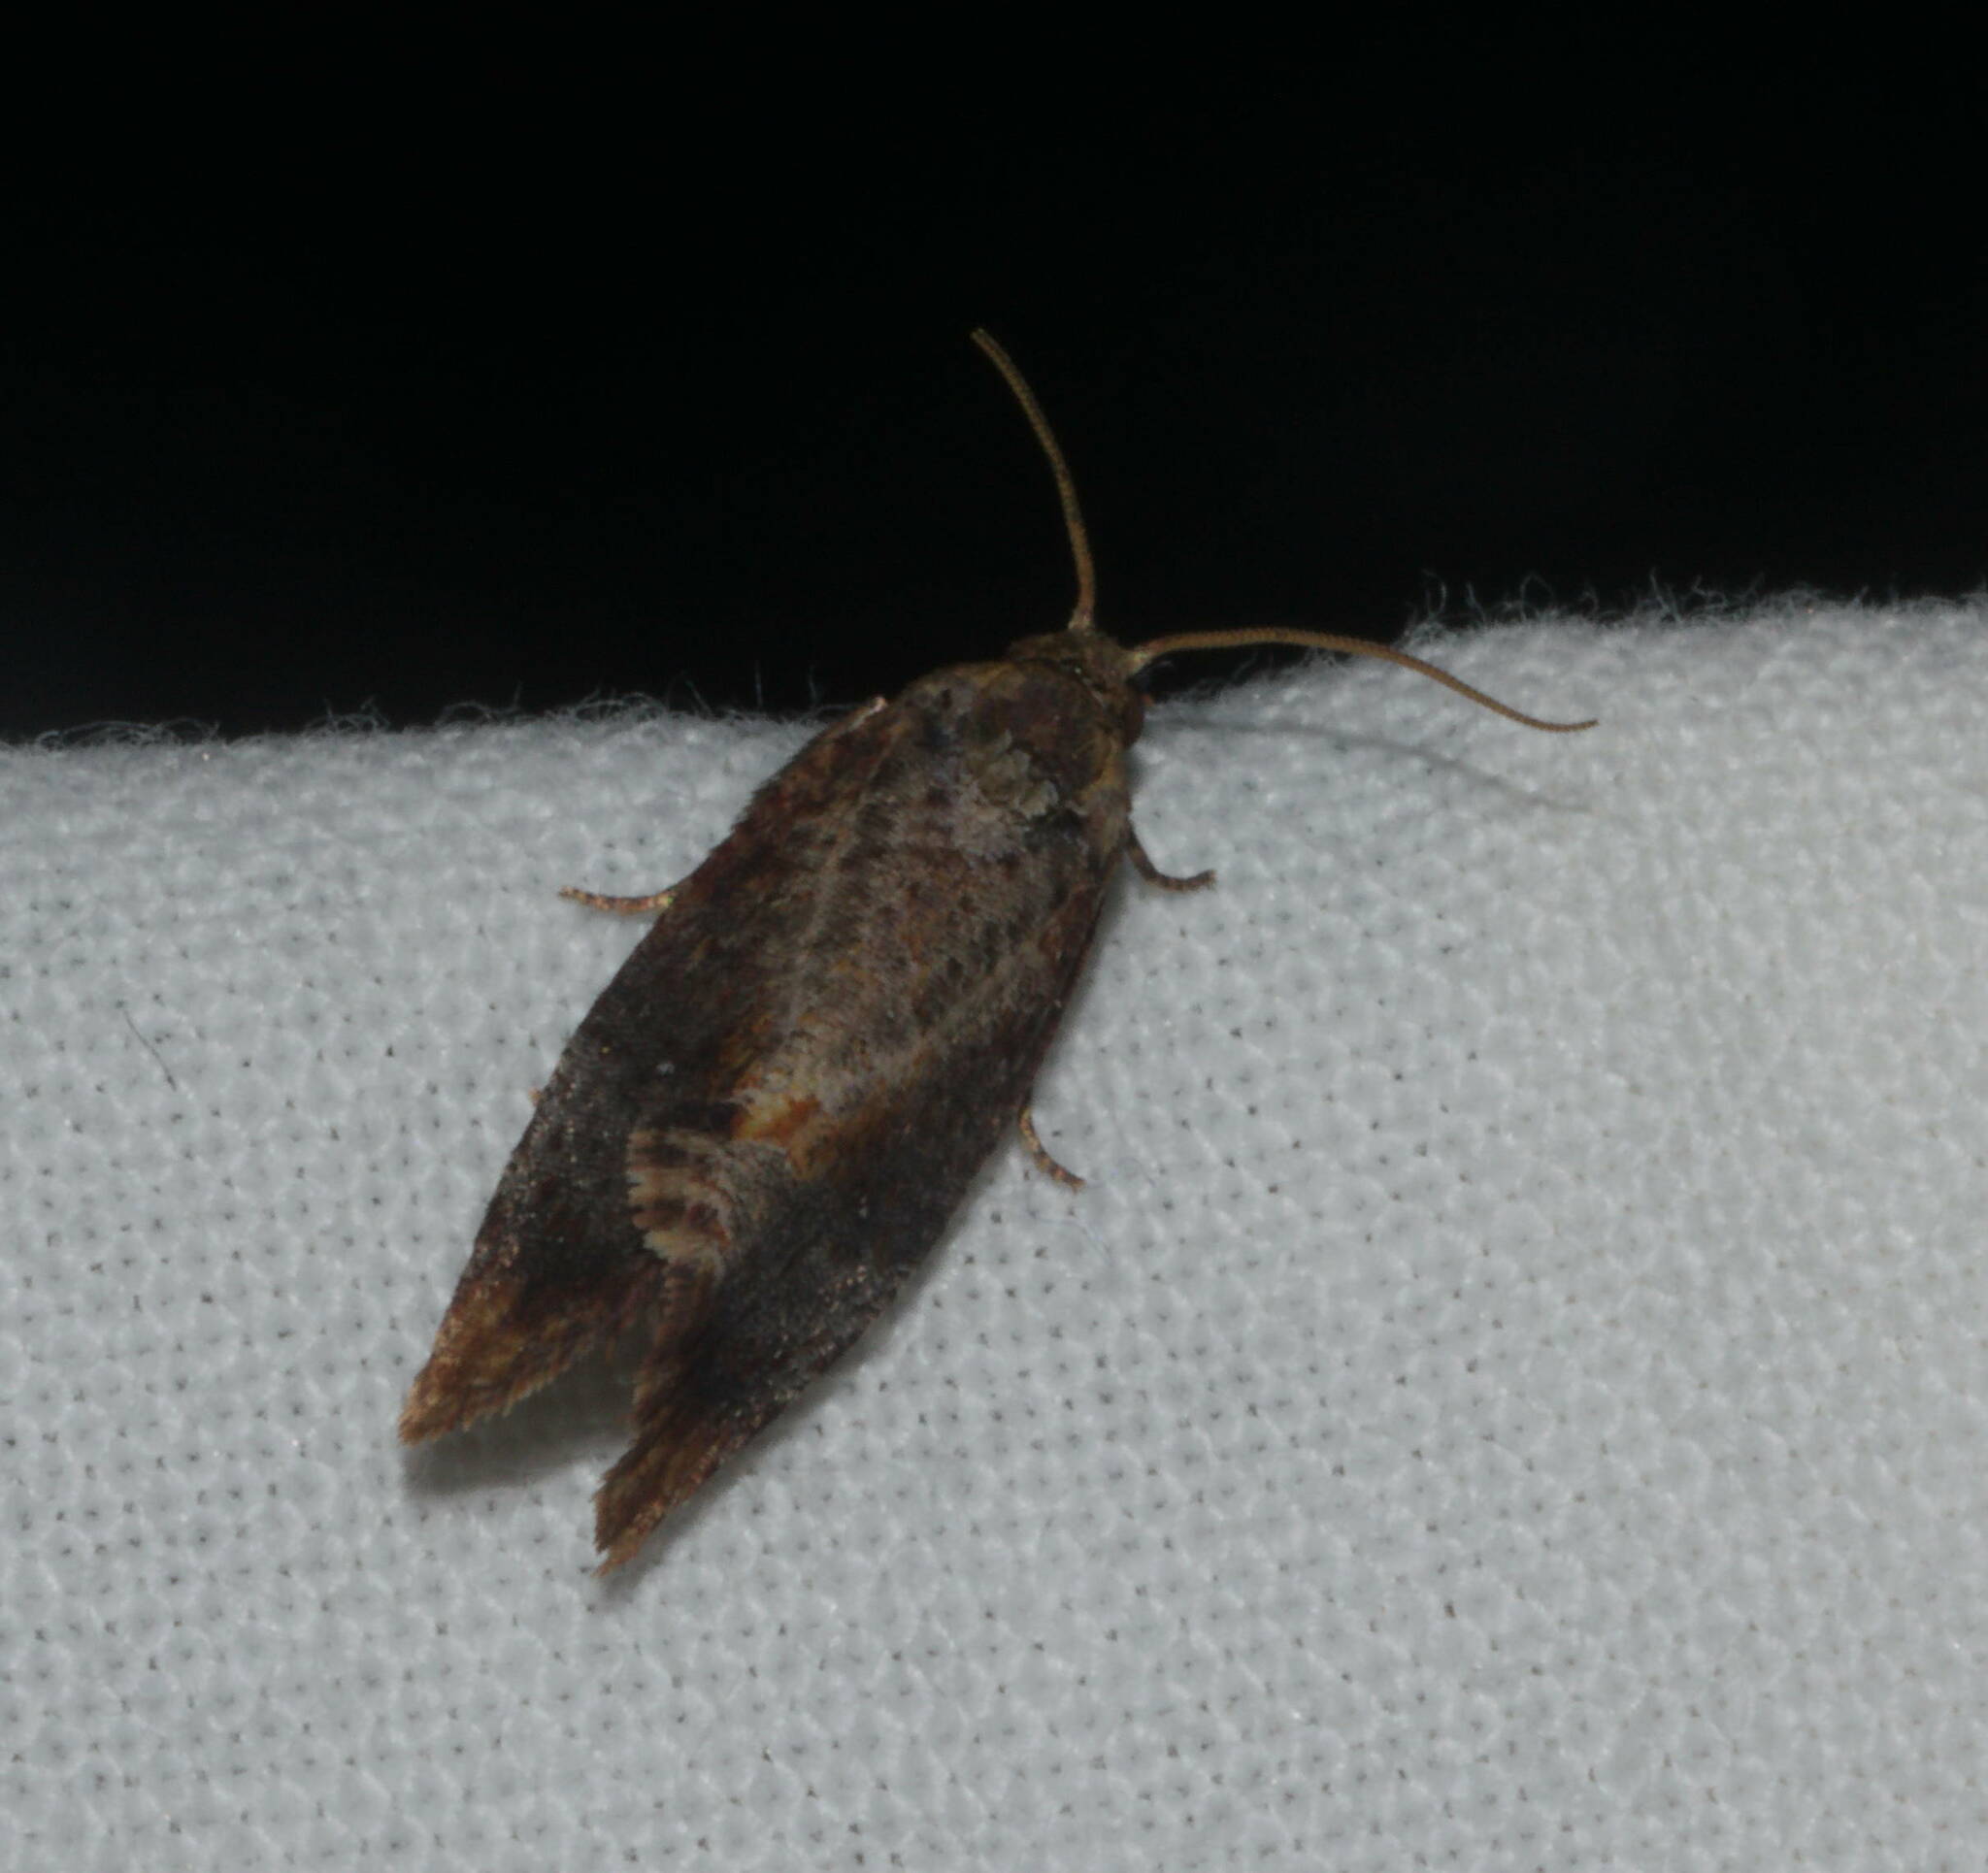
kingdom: Animalia
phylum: Arthropoda
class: Insecta
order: Lepidoptera
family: Tortricidae
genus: Cryptophlebia
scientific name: Cryptophlebia illepida
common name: Moth
